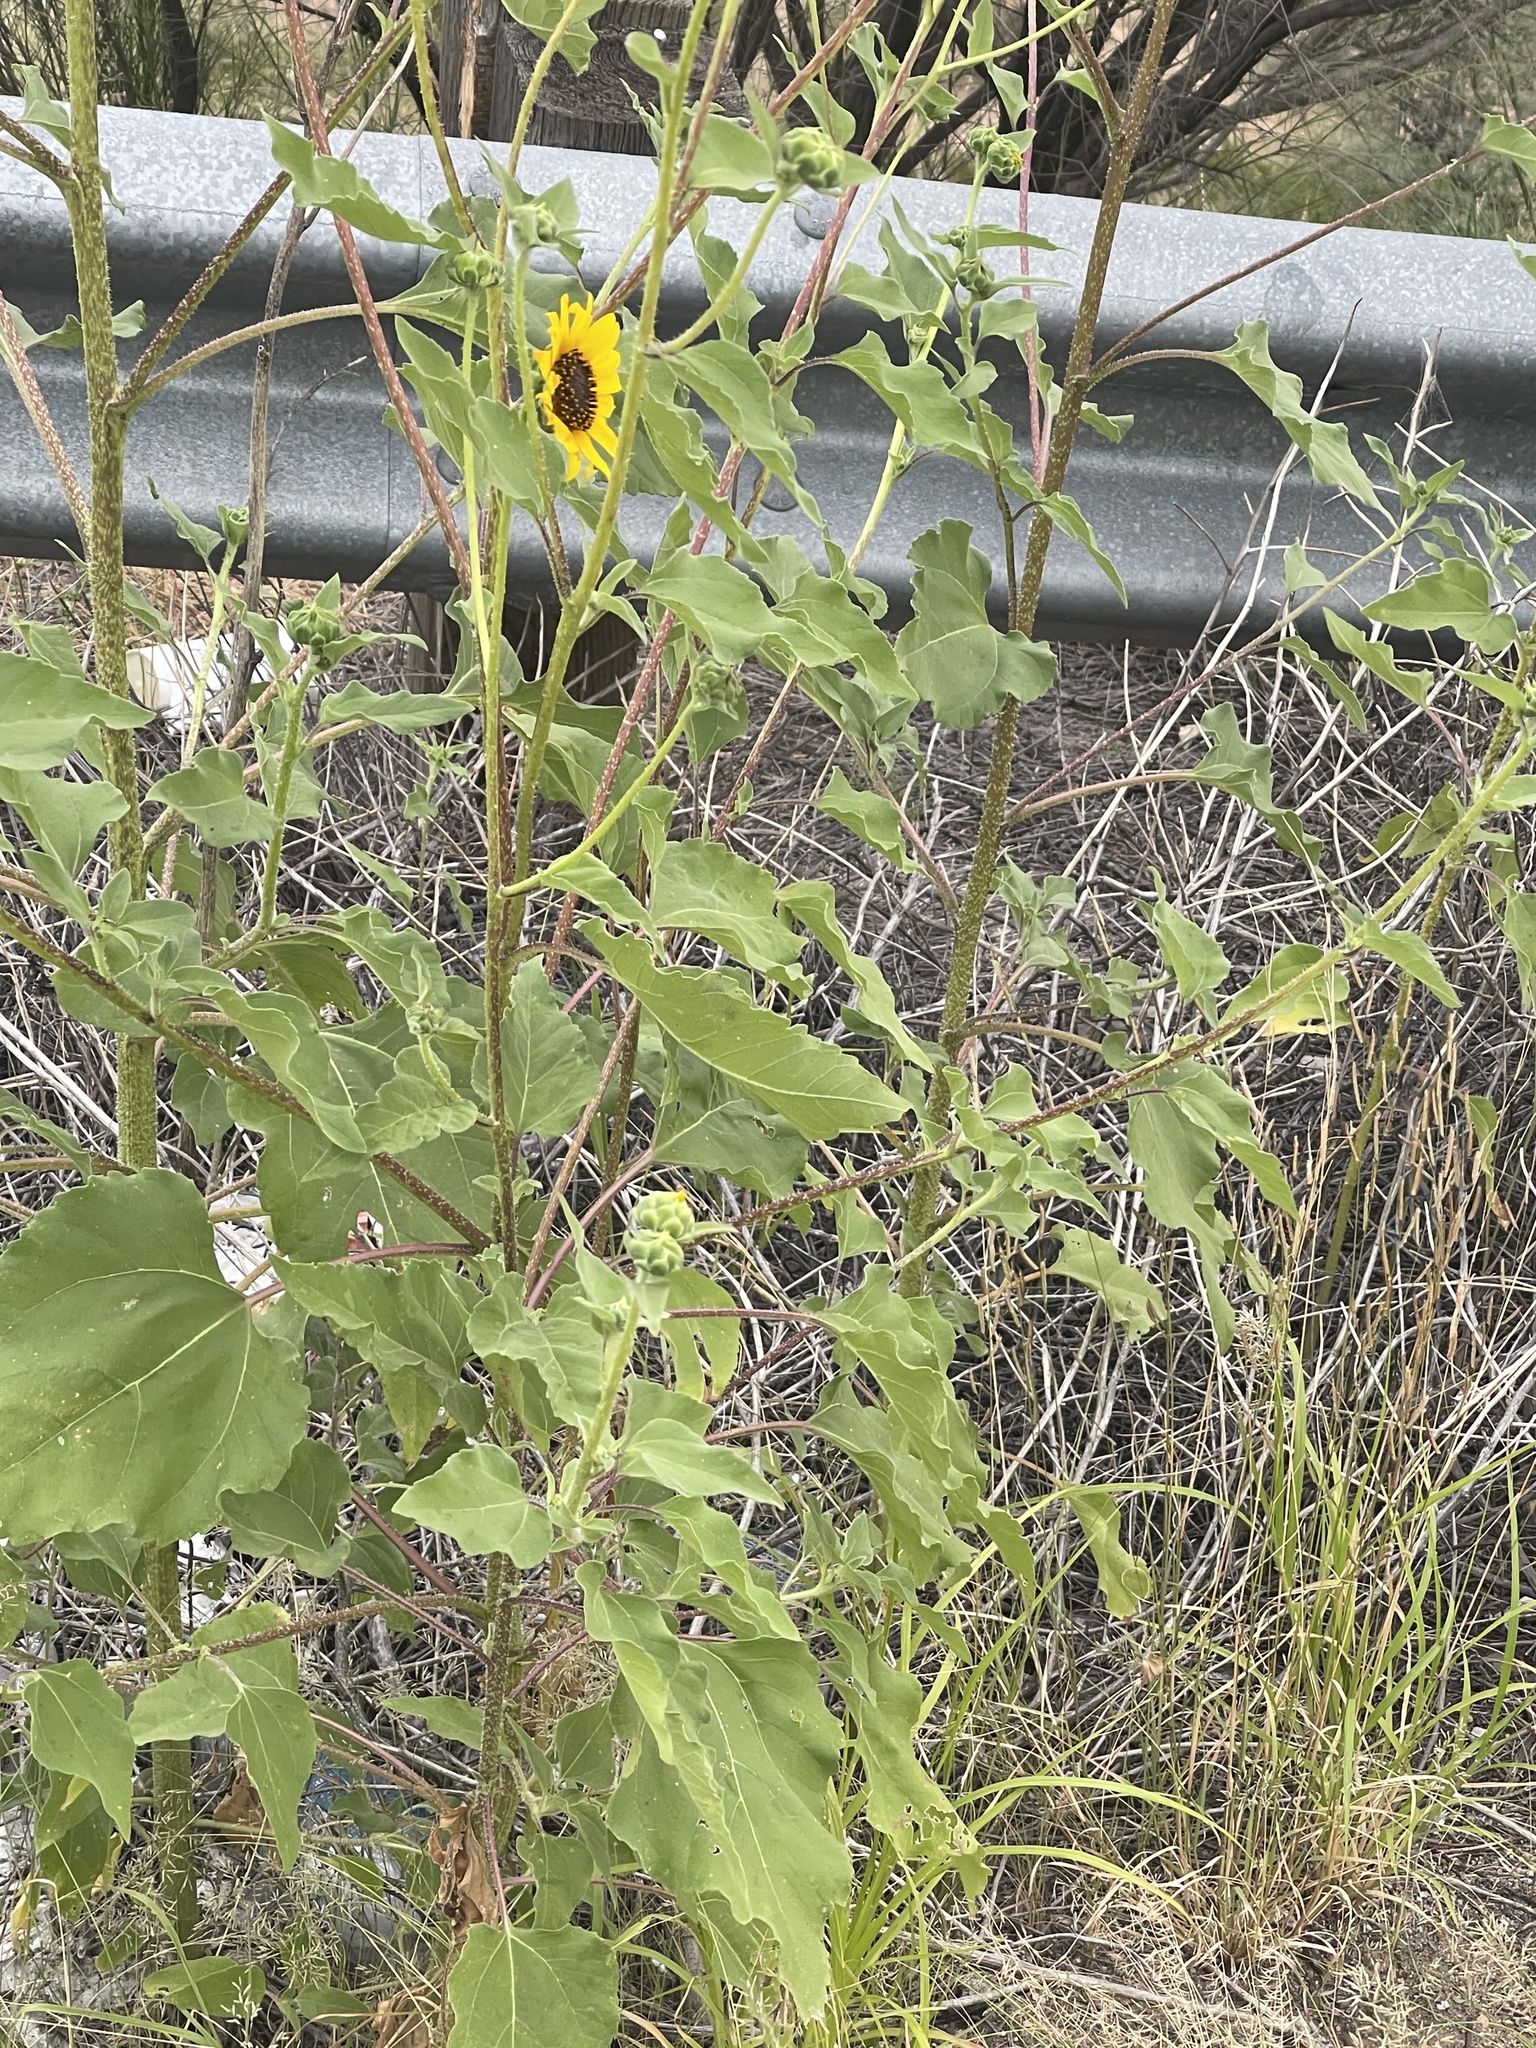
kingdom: Plantae
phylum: Tracheophyta
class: Magnoliopsida
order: Asterales
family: Asteraceae
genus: Helianthus
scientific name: Helianthus annuus
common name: Sunflower
